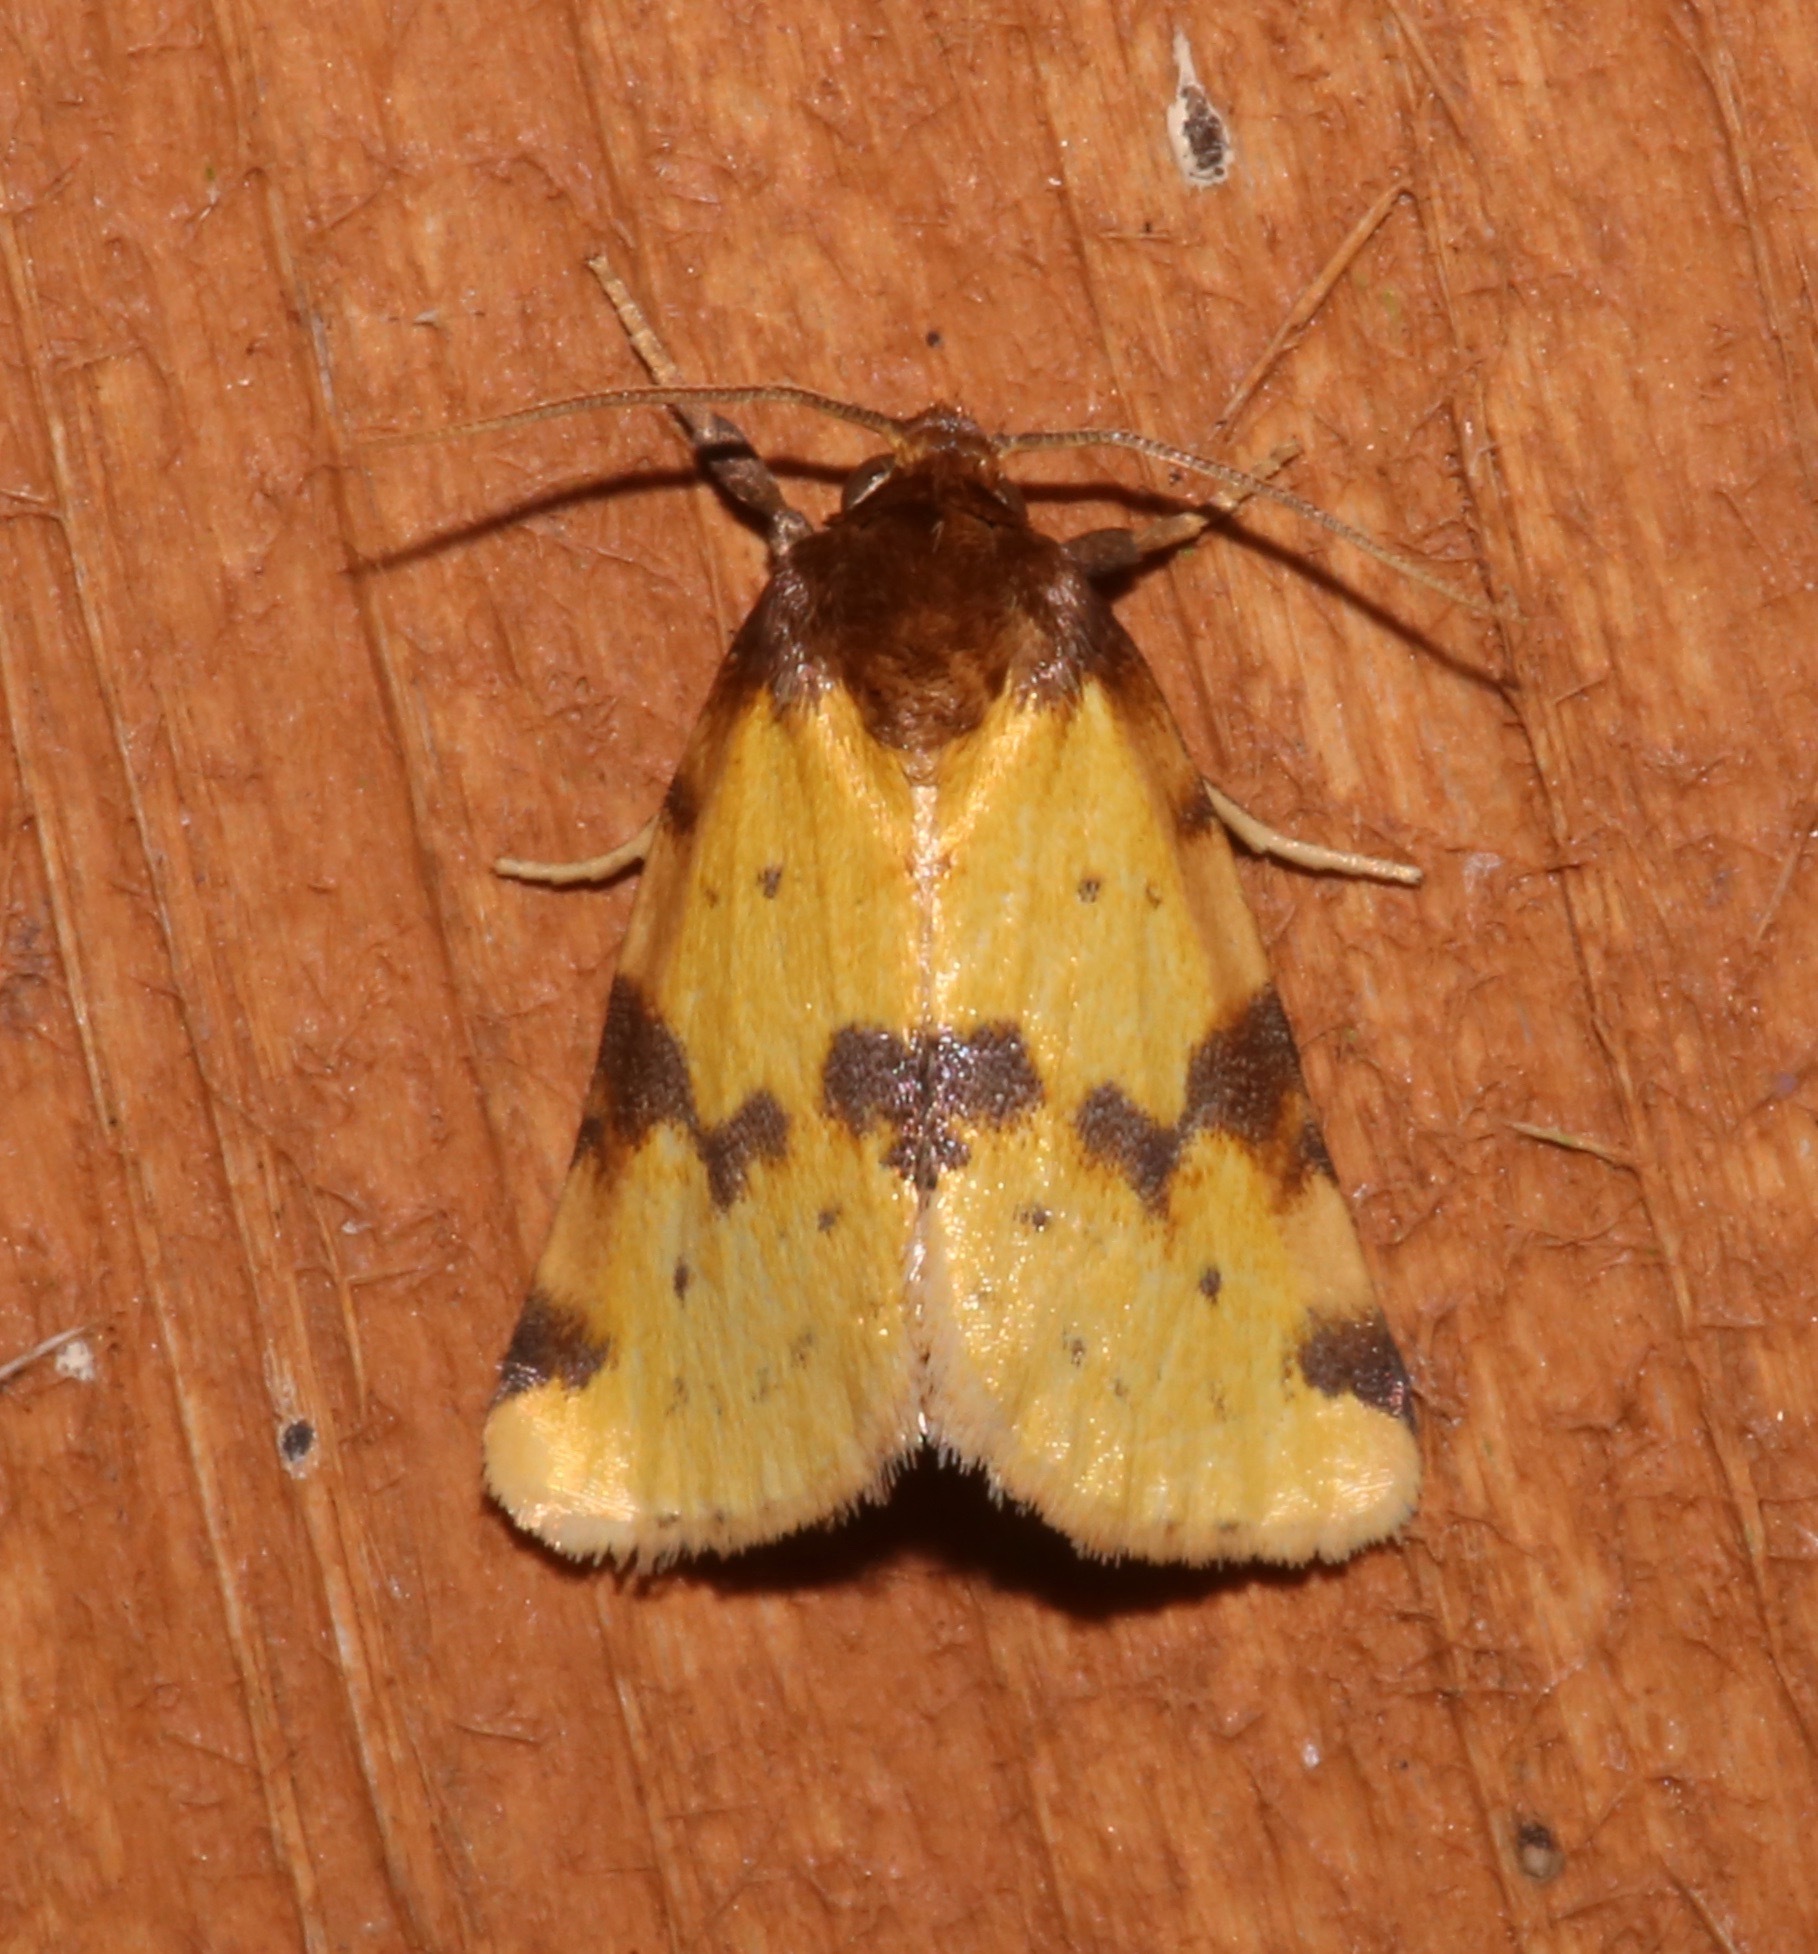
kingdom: Animalia
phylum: Arthropoda
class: Insecta
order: Lepidoptera
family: Noctuidae
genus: Azenia
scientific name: Azenia obtusa
